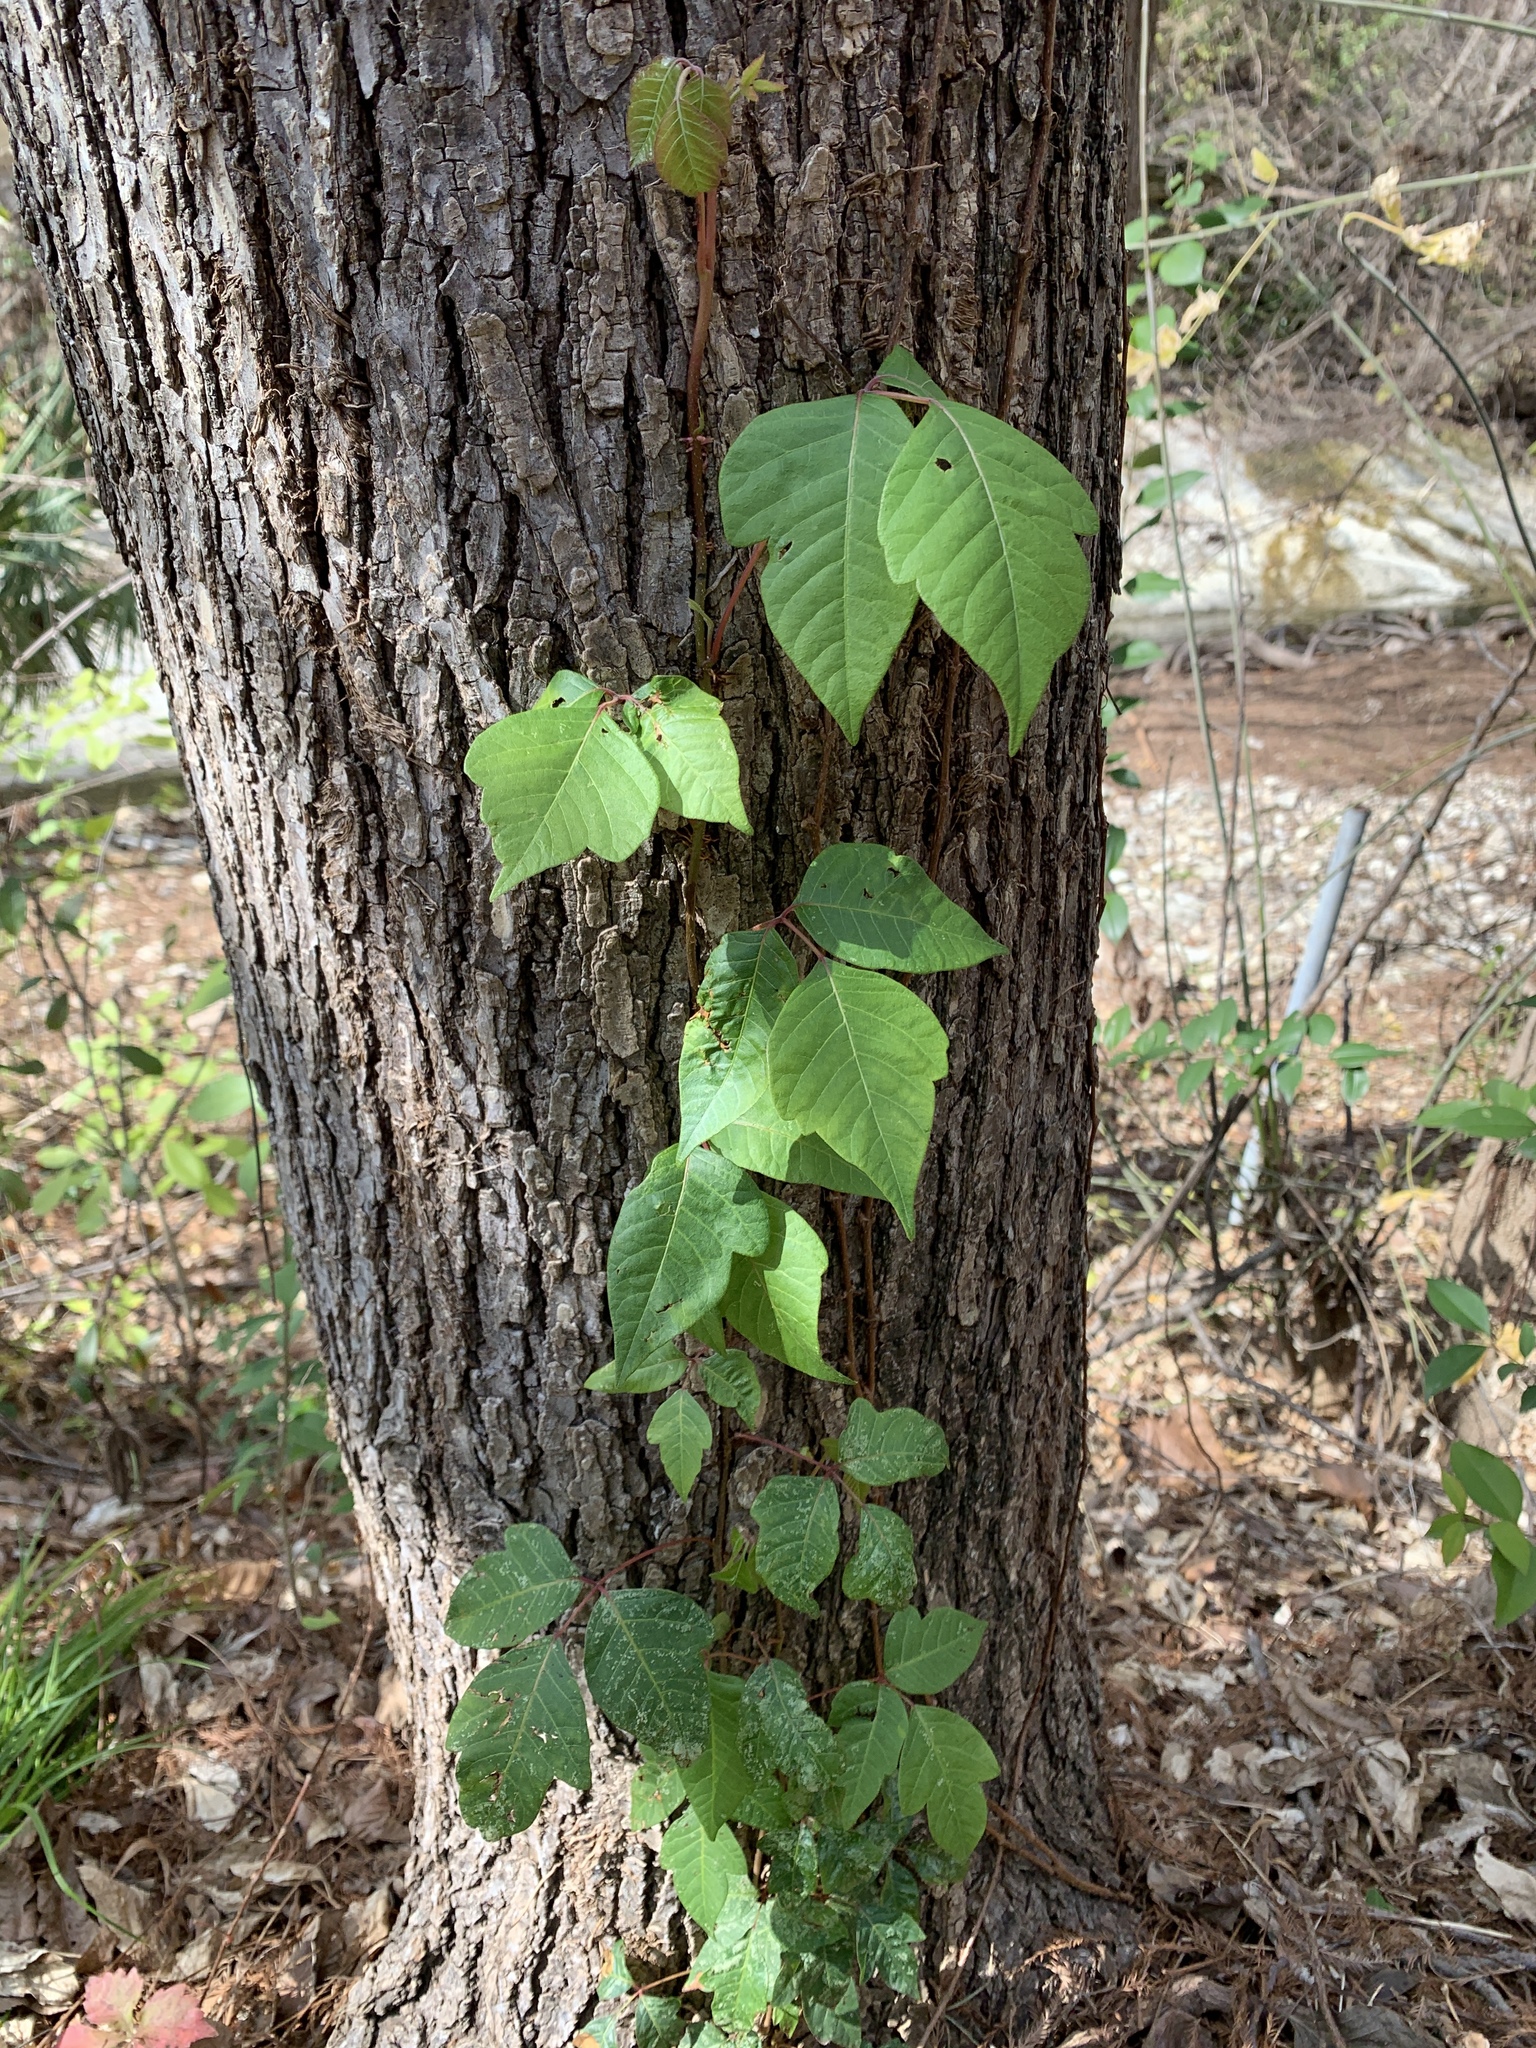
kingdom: Plantae
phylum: Tracheophyta
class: Magnoliopsida
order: Sapindales
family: Anacardiaceae
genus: Toxicodendron
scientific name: Toxicodendron radicans
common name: Poison ivy
